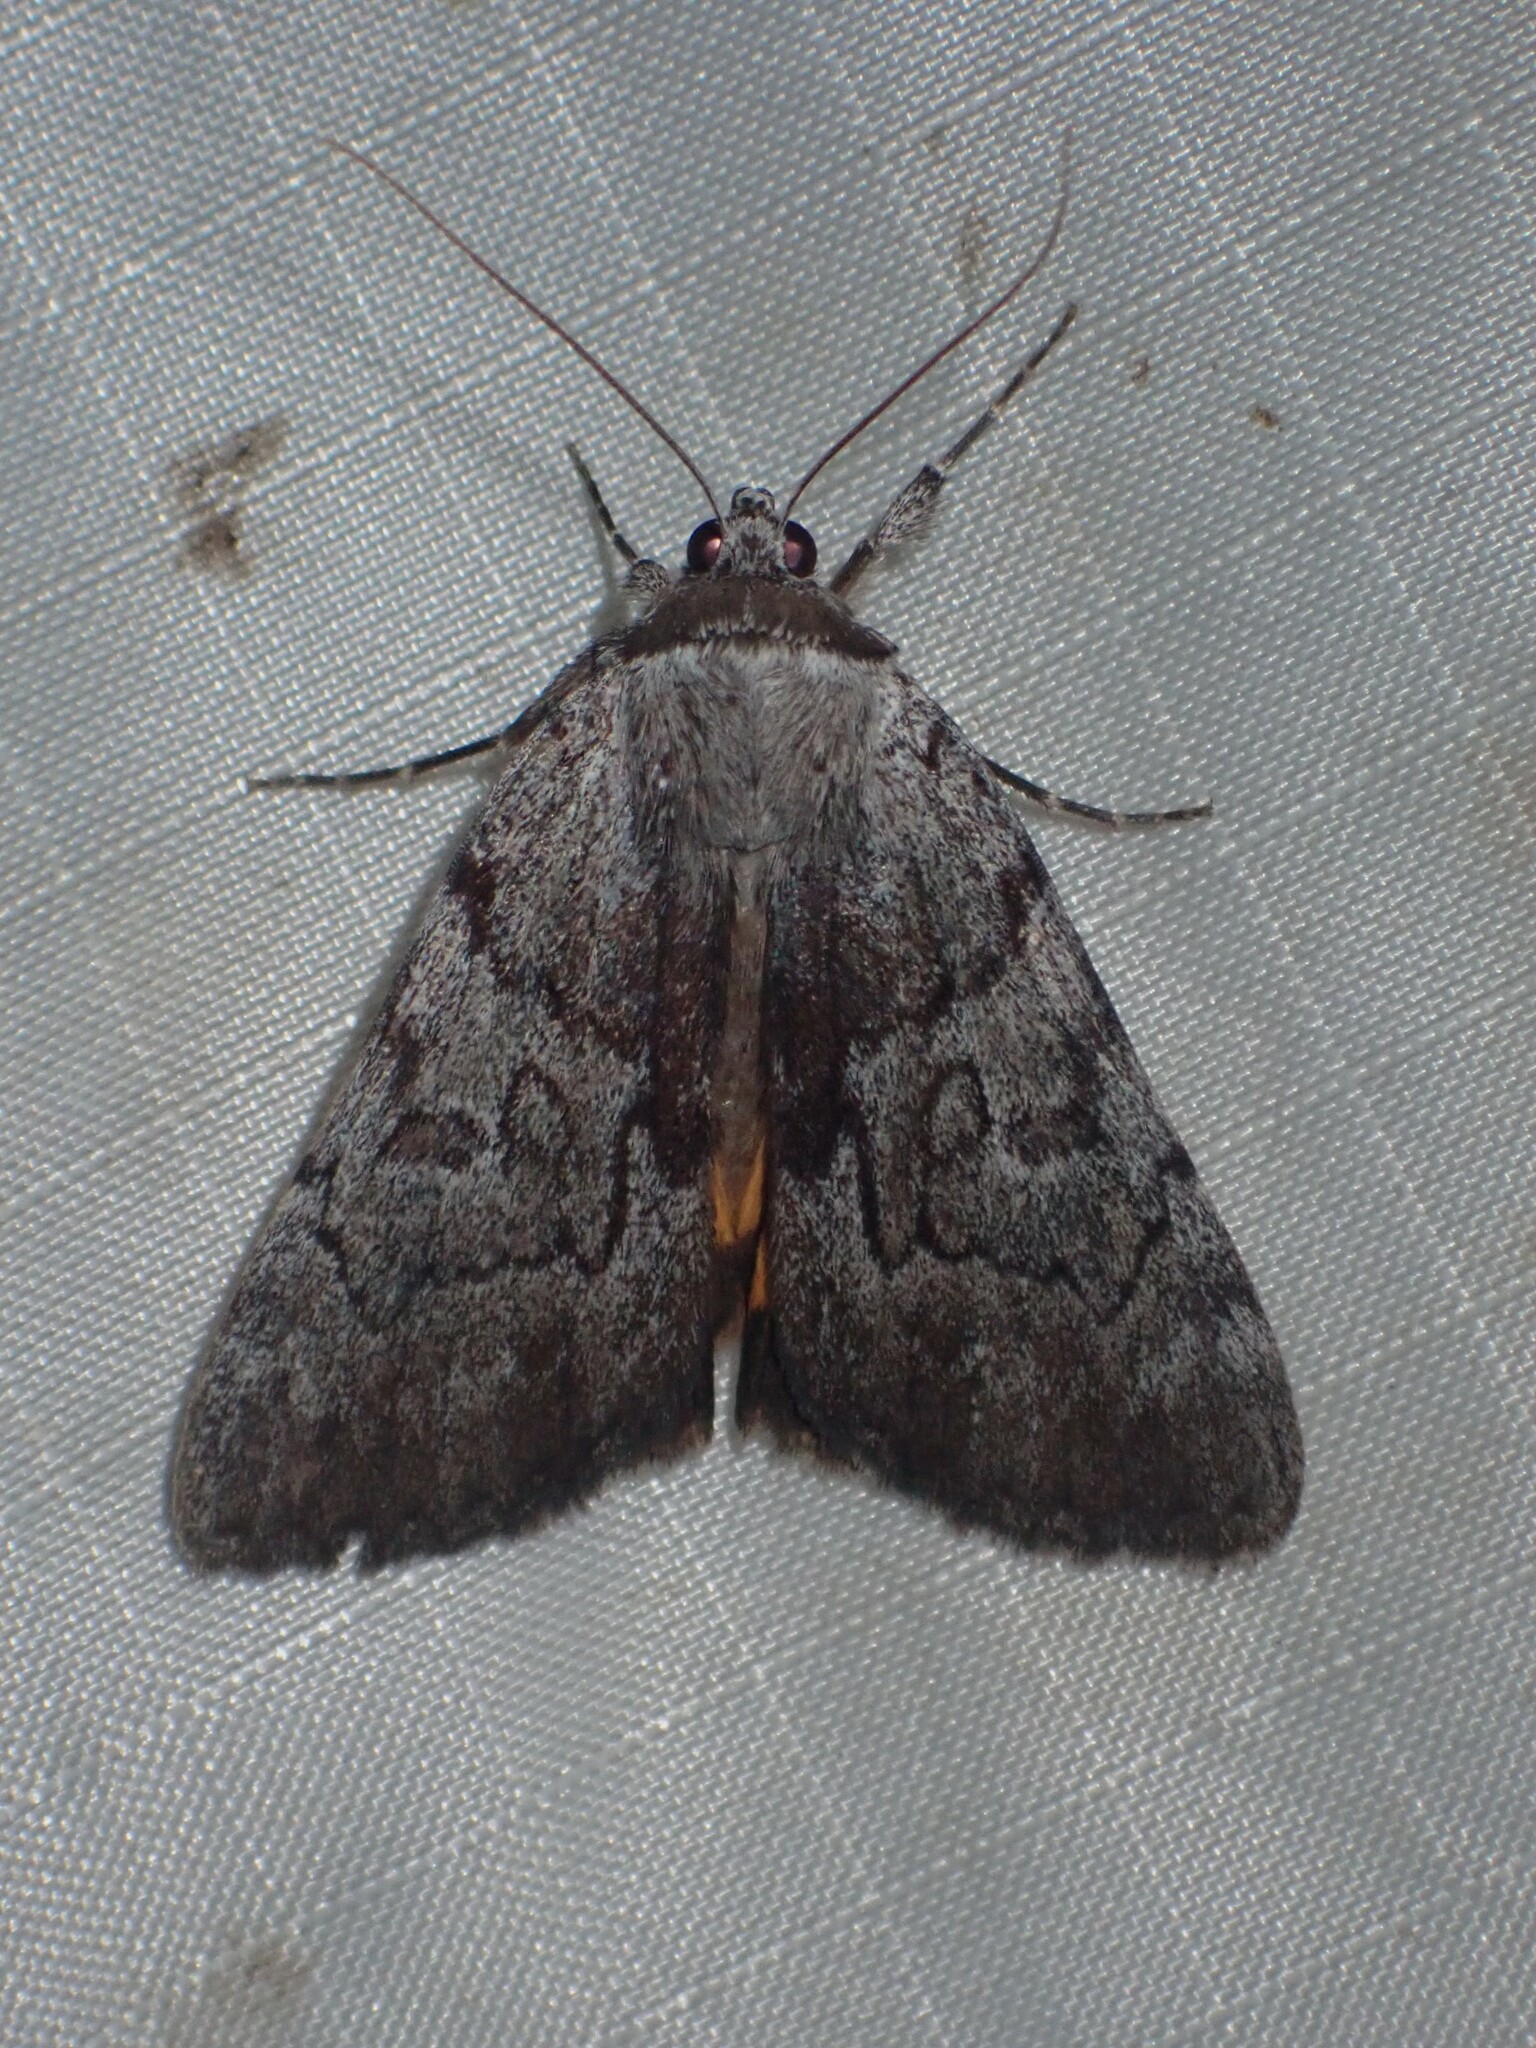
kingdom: Animalia
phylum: Arthropoda
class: Insecta
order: Lepidoptera
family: Erebidae
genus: Catocala
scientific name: Catocala sordida
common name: Sordid underwing
